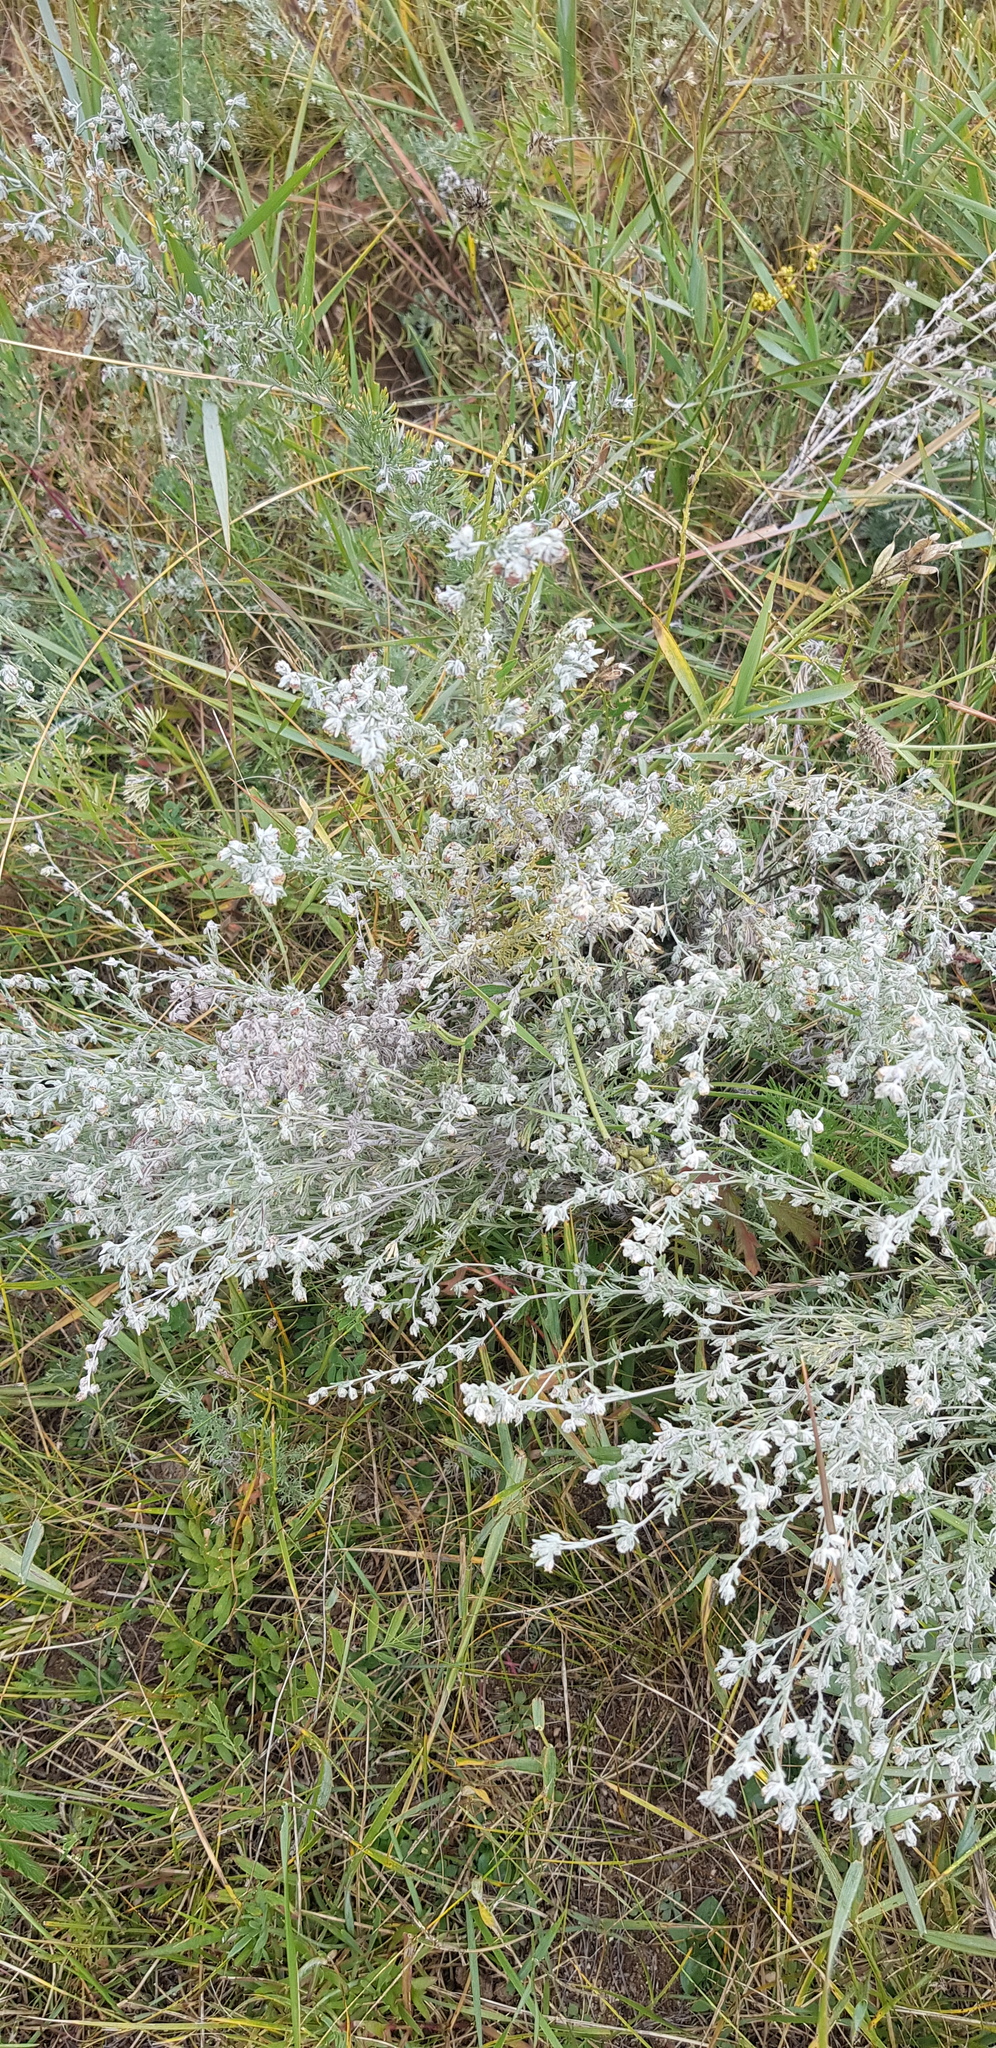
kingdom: Plantae
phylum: Tracheophyta
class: Magnoliopsida
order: Asterales
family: Asteraceae
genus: Artemisia
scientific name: Artemisia frigida
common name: Prairie sagewort
